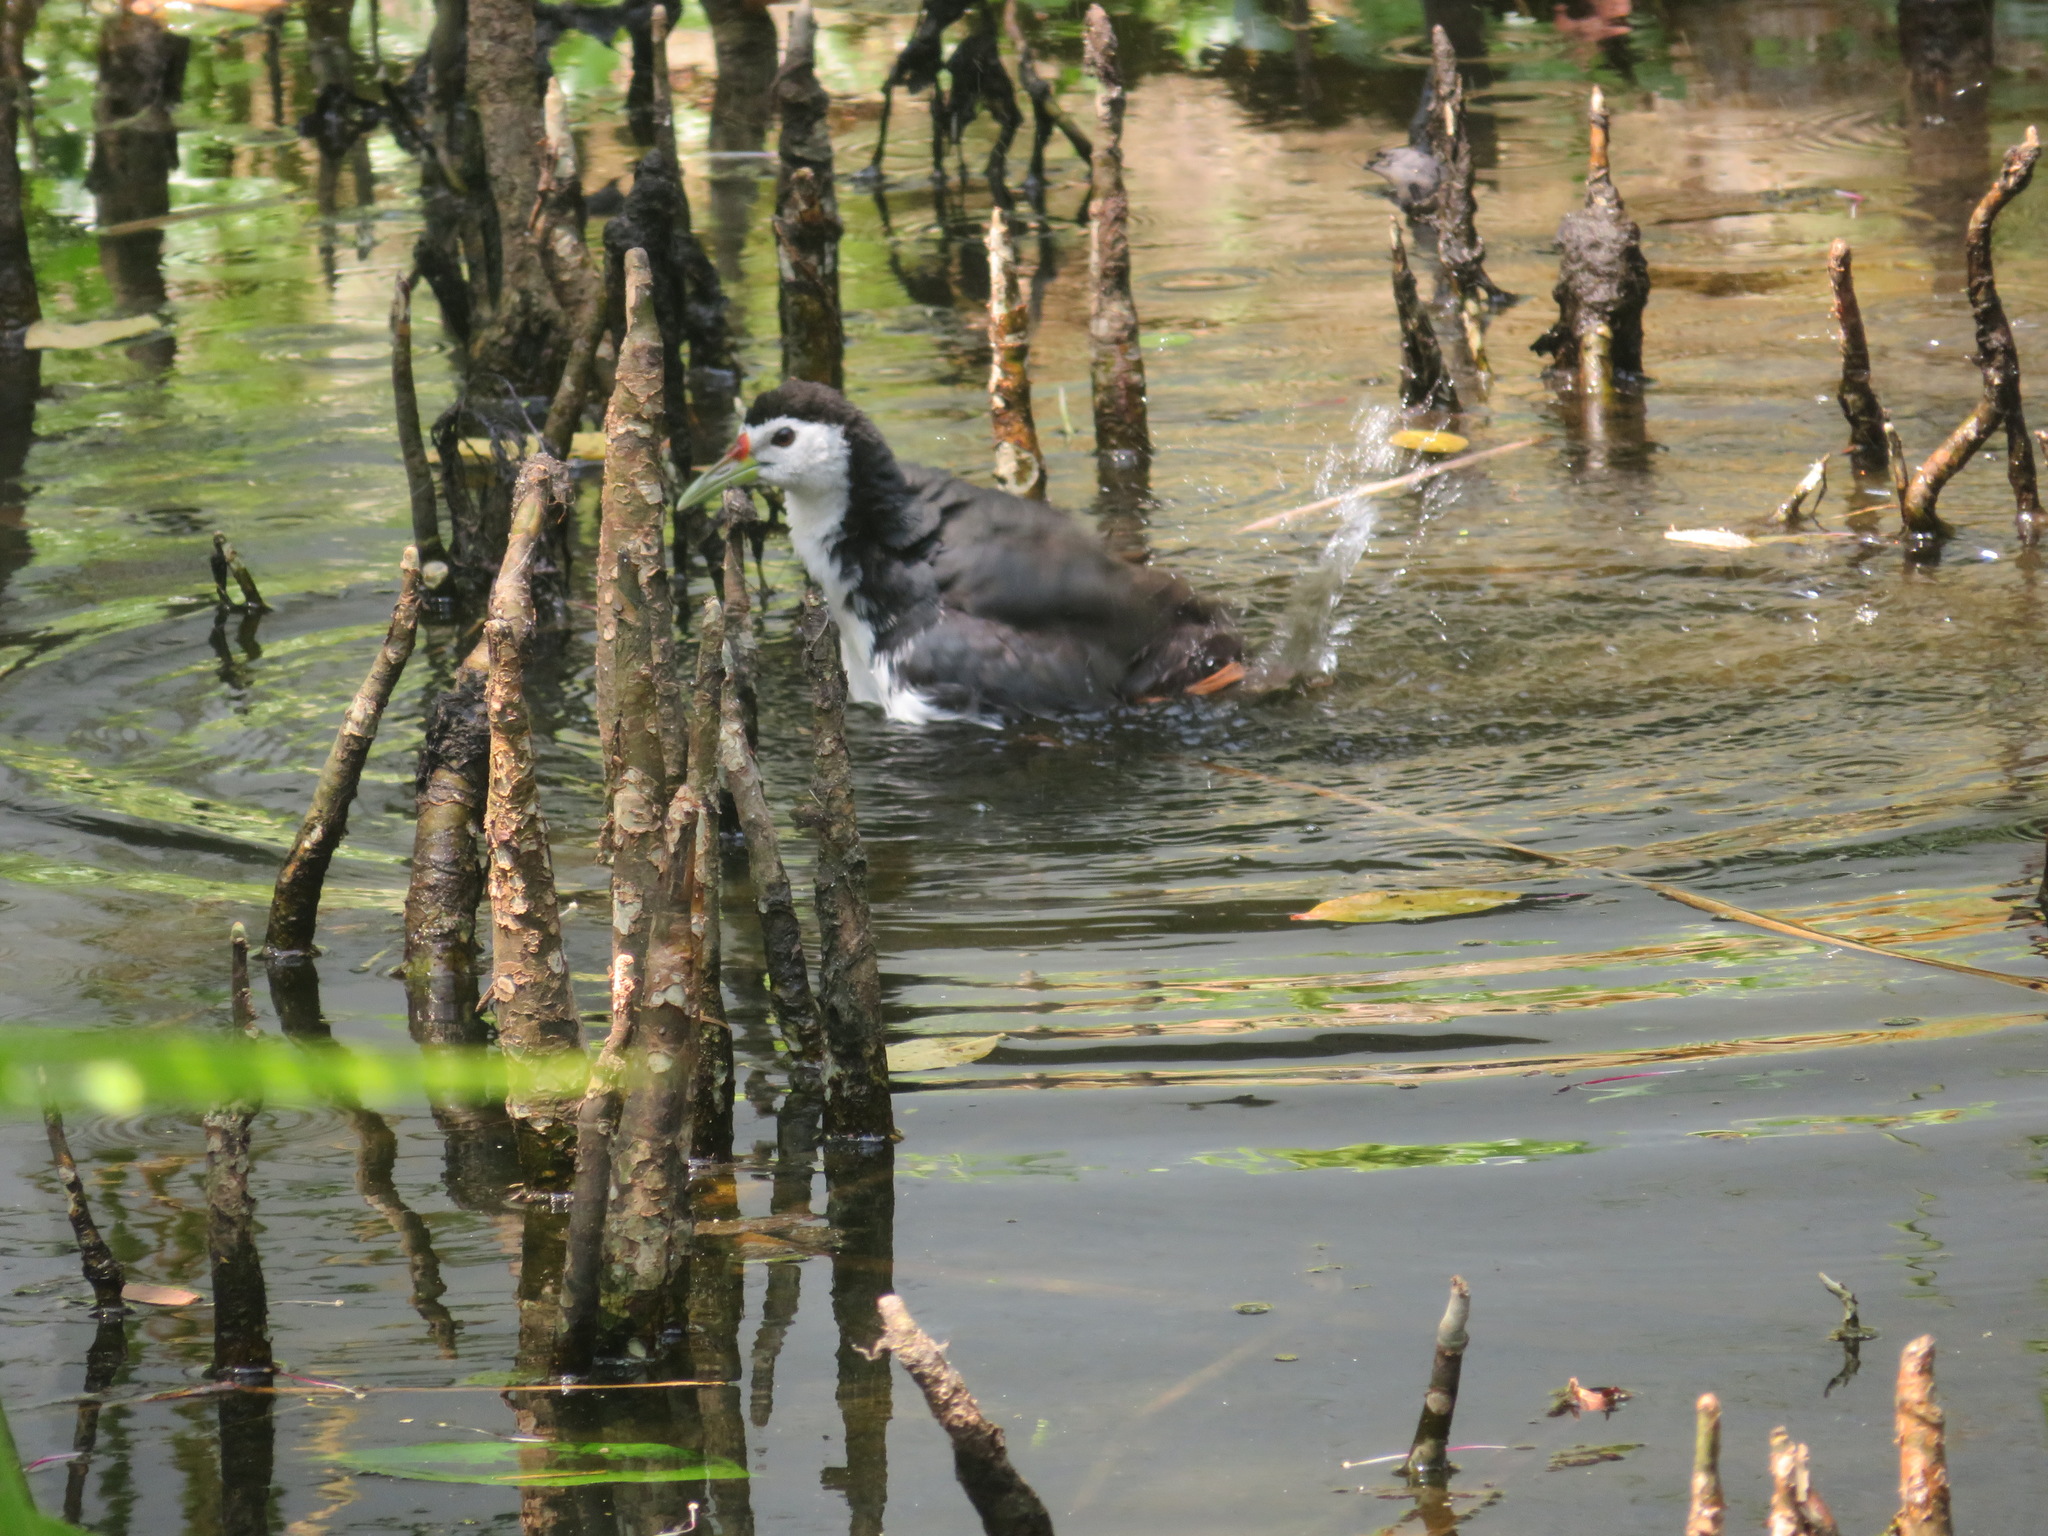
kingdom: Animalia
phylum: Chordata
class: Aves
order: Gruiformes
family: Rallidae
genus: Amaurornis
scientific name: Amaurornis phoenicurus
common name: White-breasted waterhen
